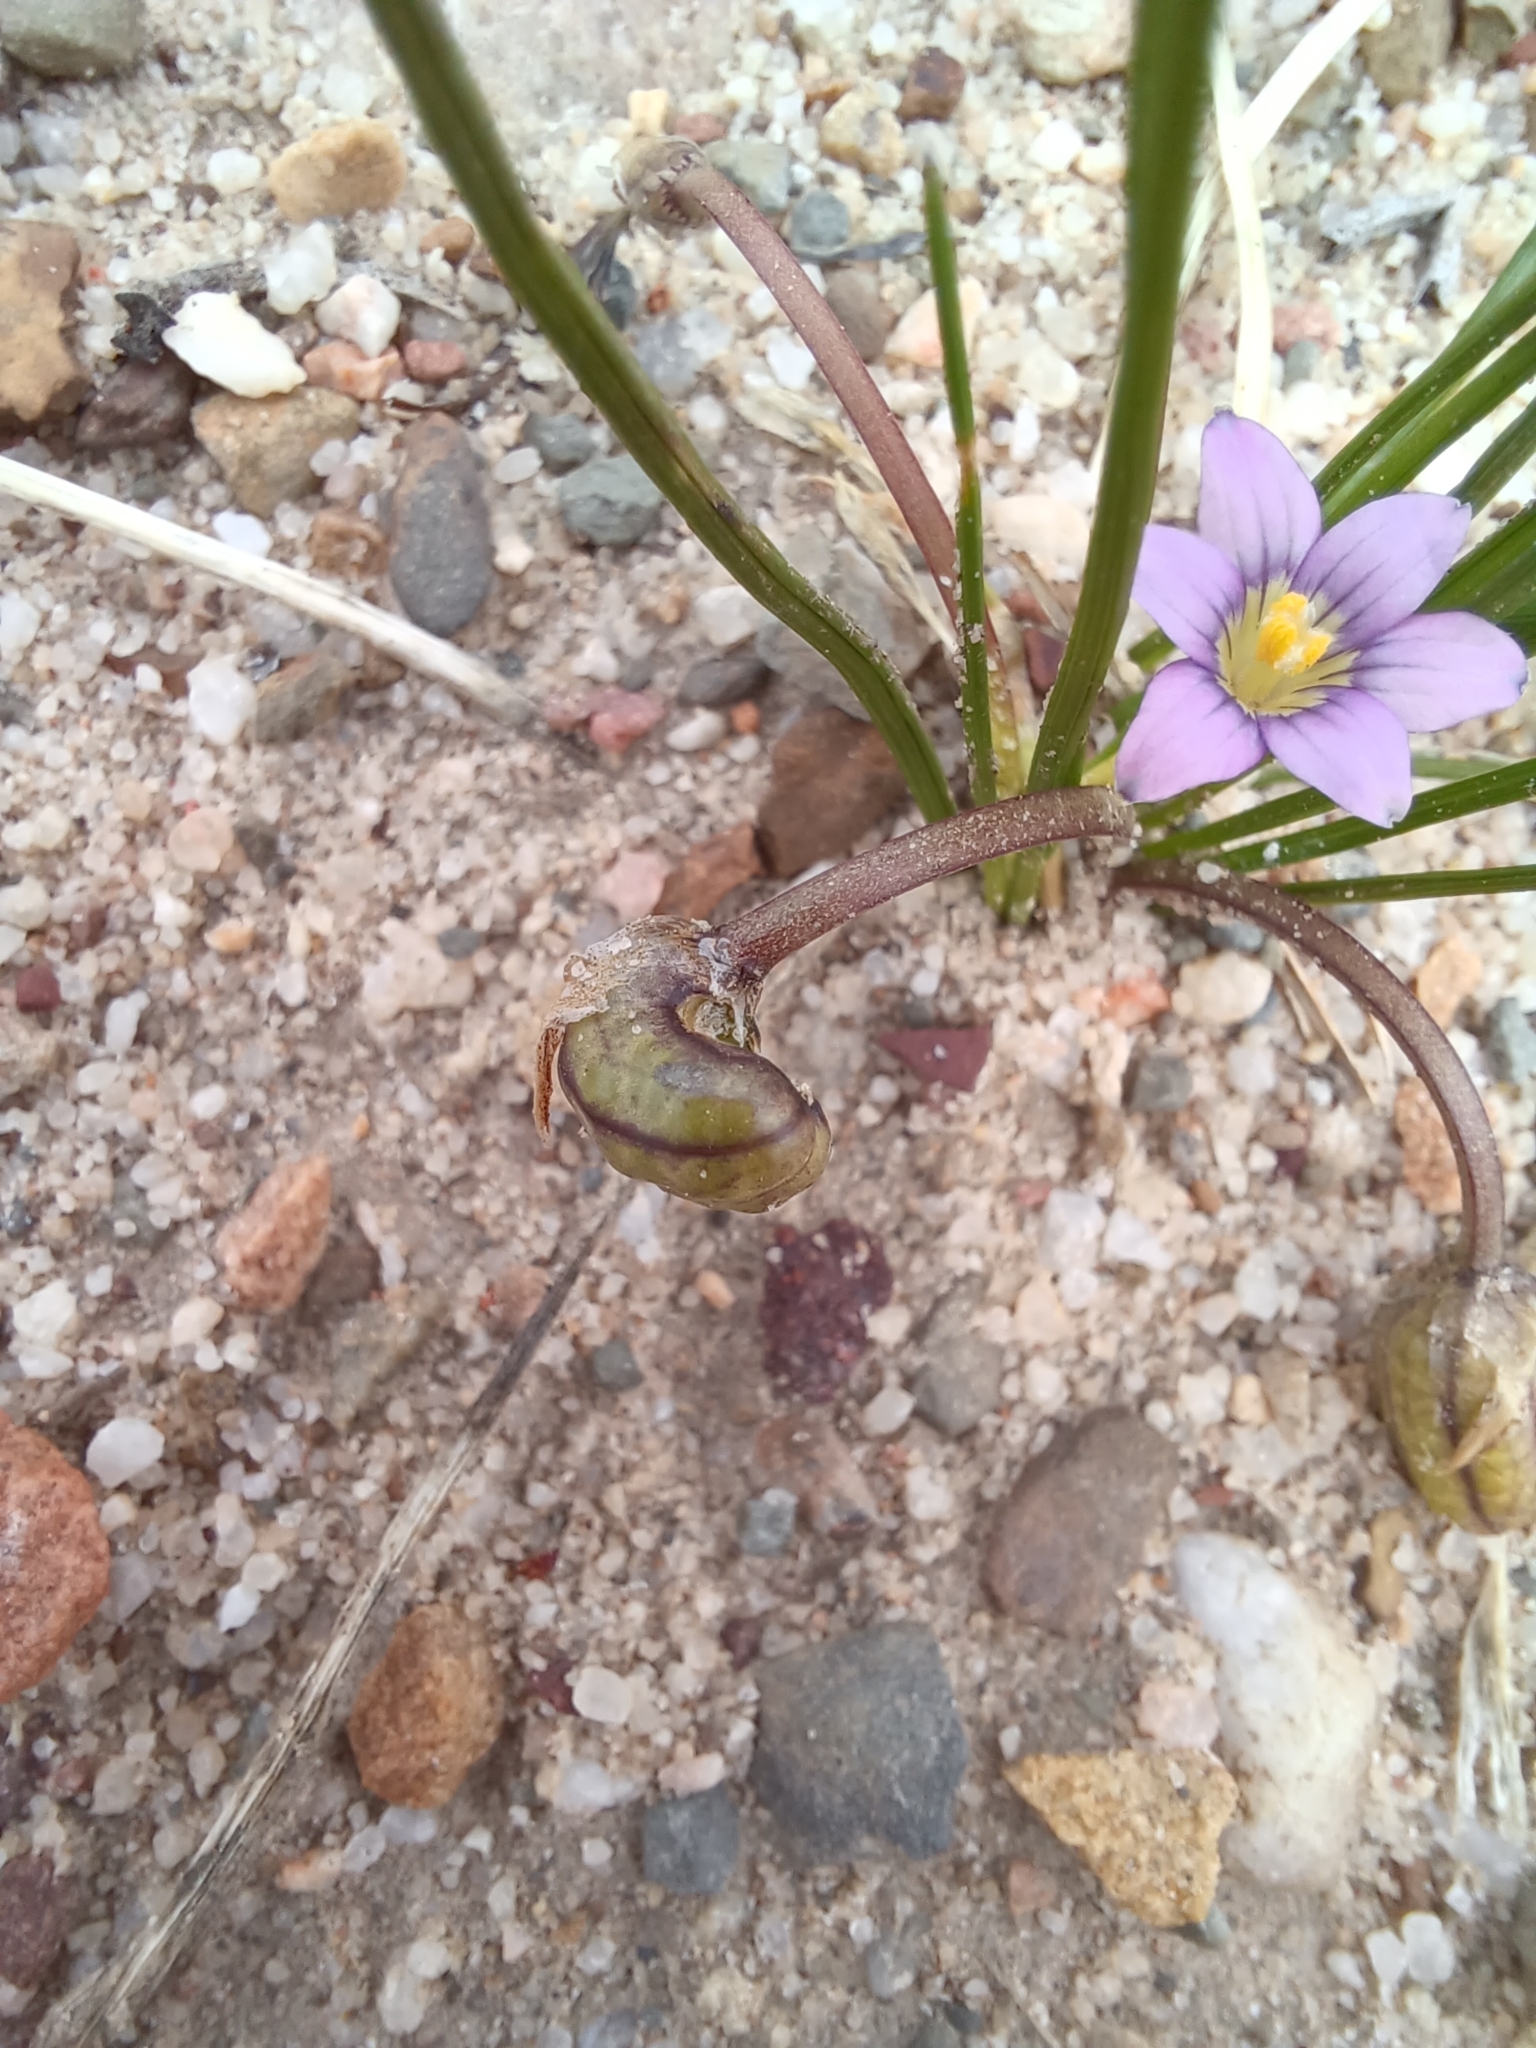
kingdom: Plantae
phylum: Tracheophyta
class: Liliopsida
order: Asparagales
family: Iridaceae
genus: Romulea
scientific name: Romulea minutiflora
